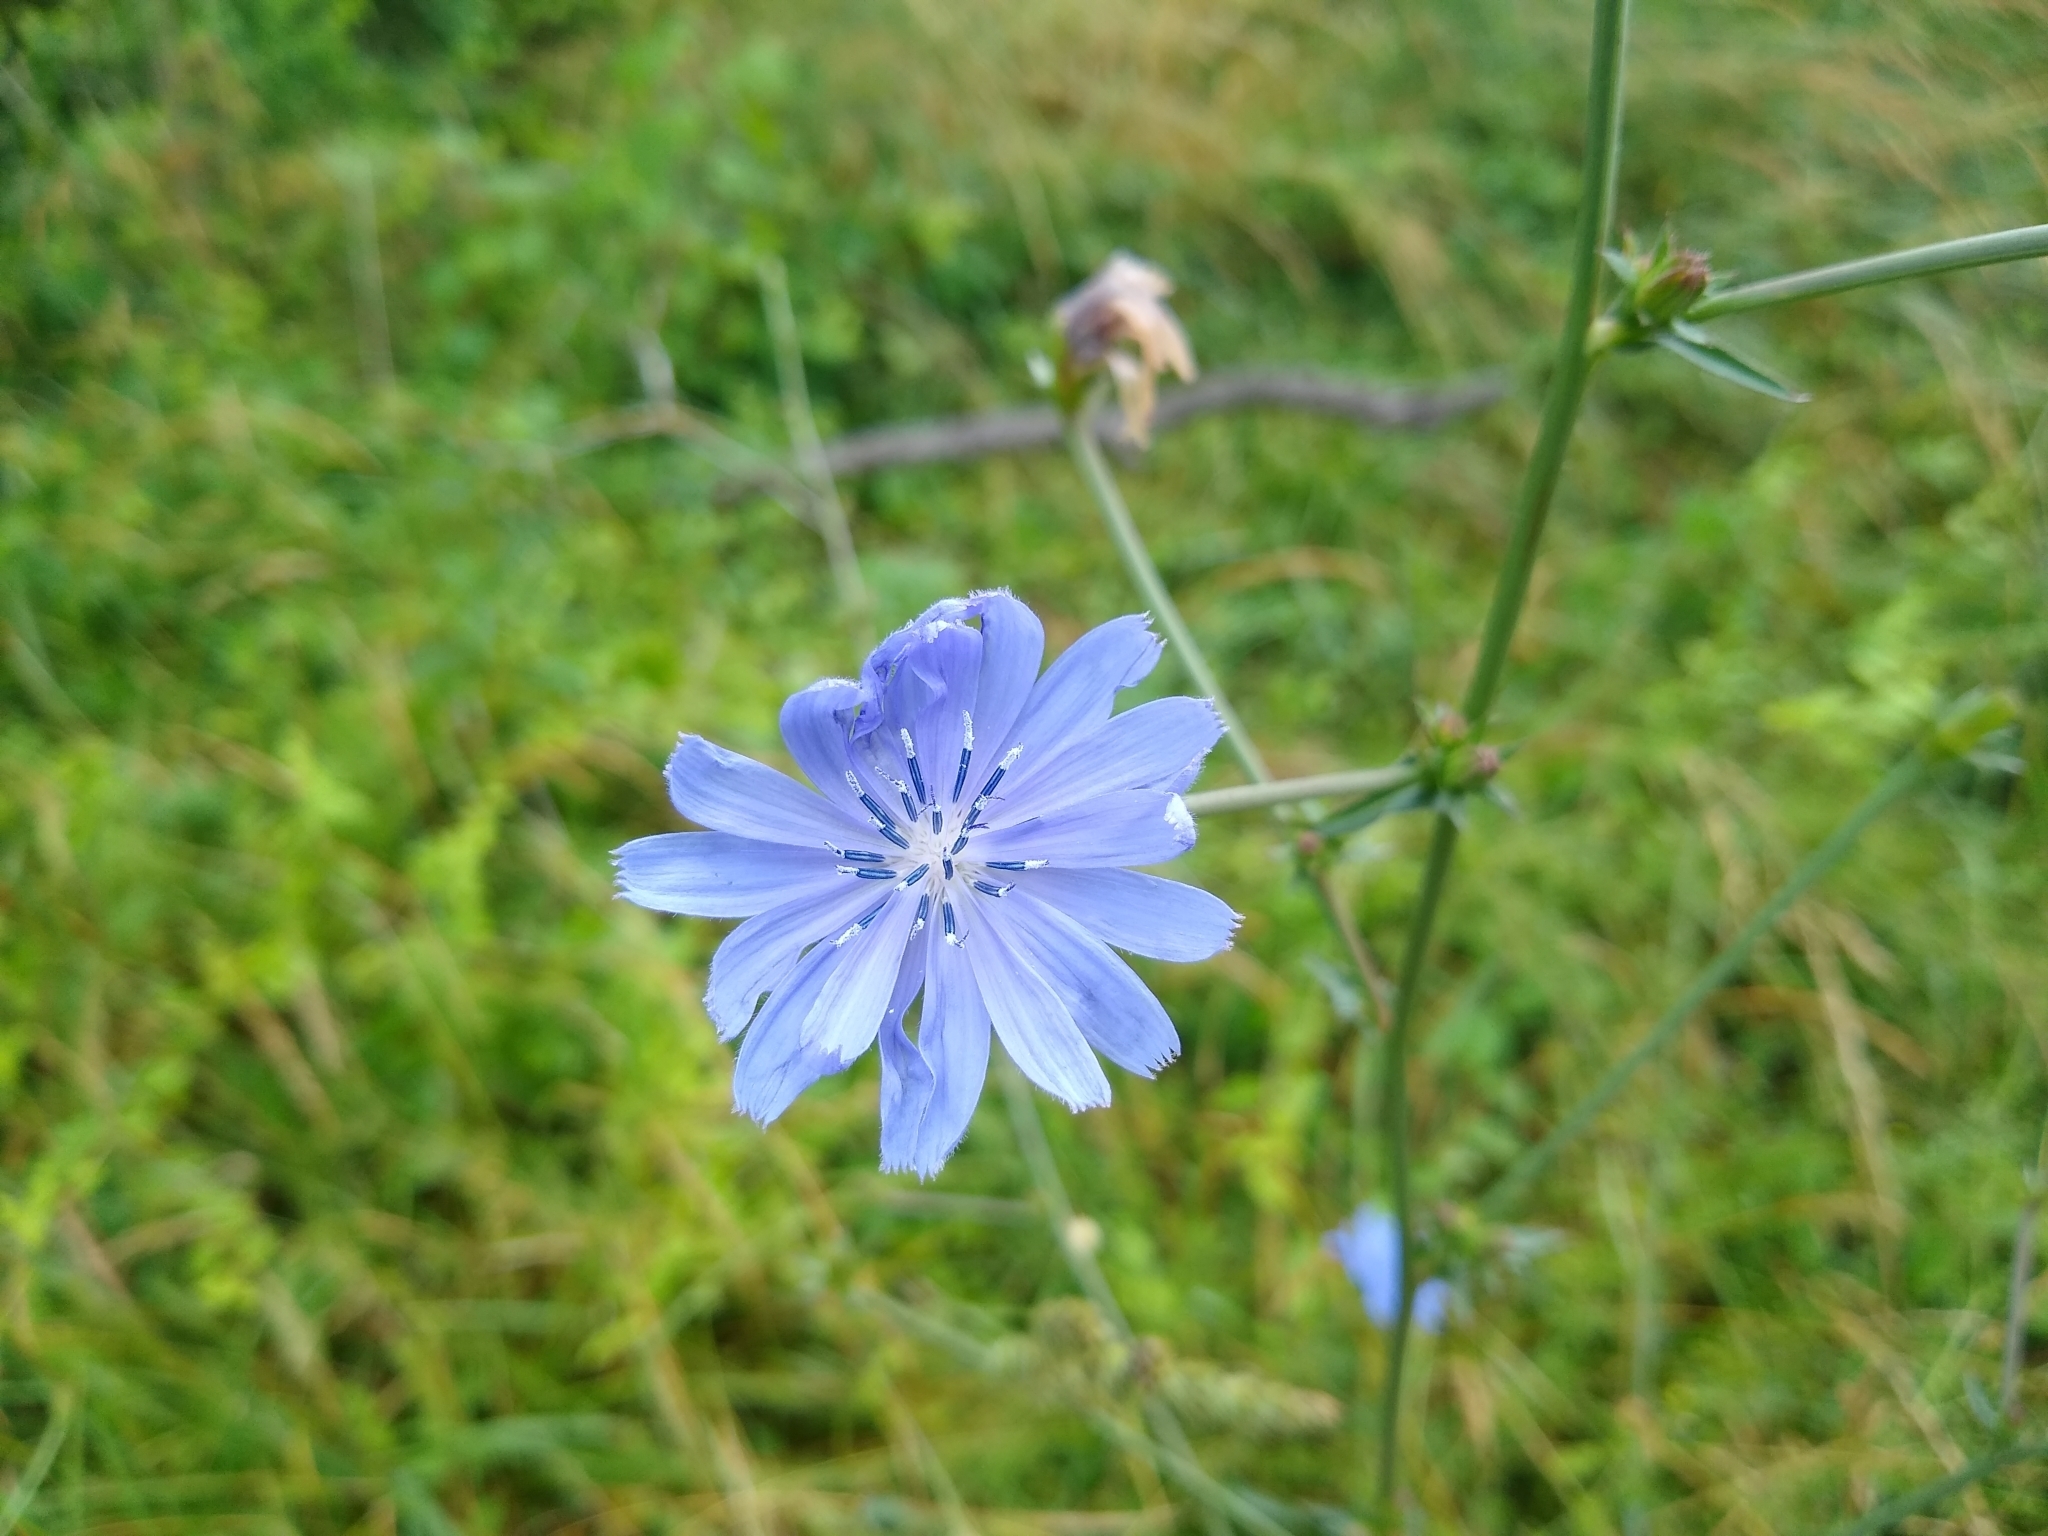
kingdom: Plantae
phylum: Tracheophyta
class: Magnoliopsida
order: Asterales
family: Asteraceae
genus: Cichorium
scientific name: Cichorium intybus
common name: Chicory
